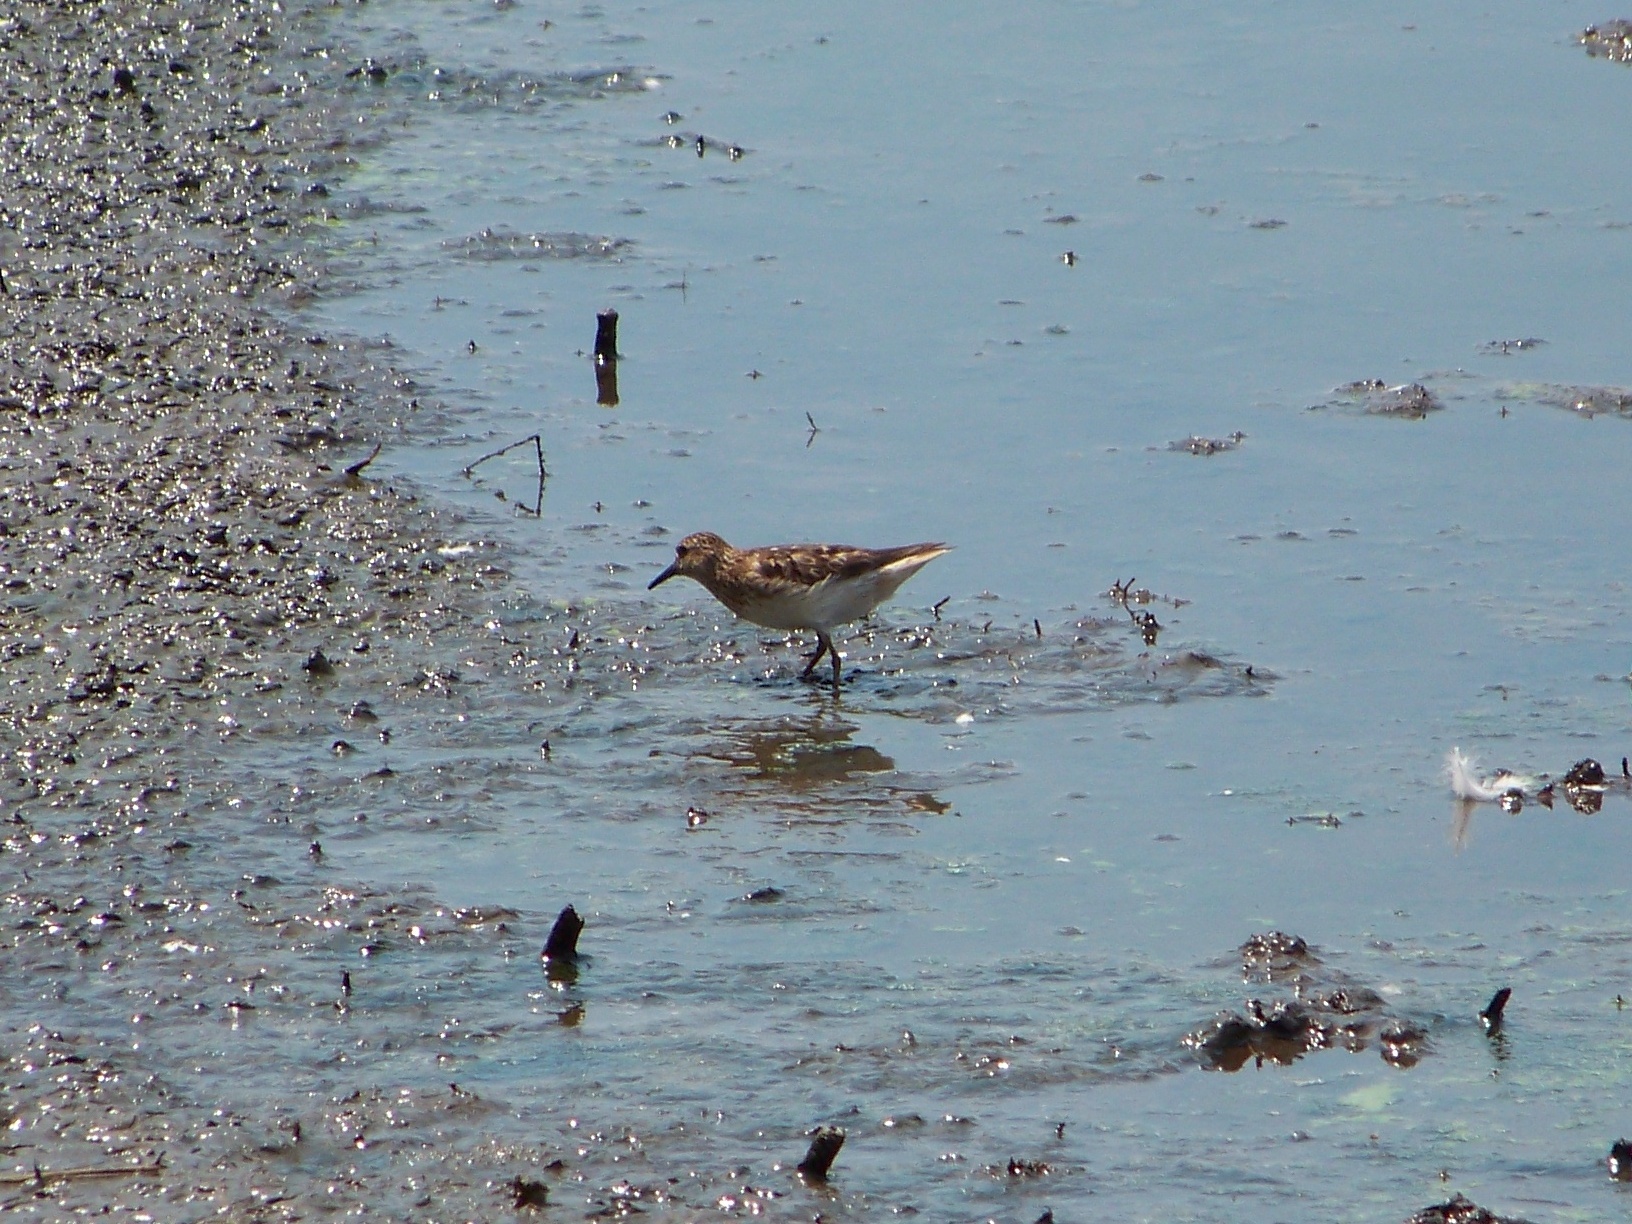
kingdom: Animalia
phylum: Chordata
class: Aves
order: Charadriiformes
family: Scolopacidae
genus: Calidris
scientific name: Calidris minutilla
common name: Least sandpiper
